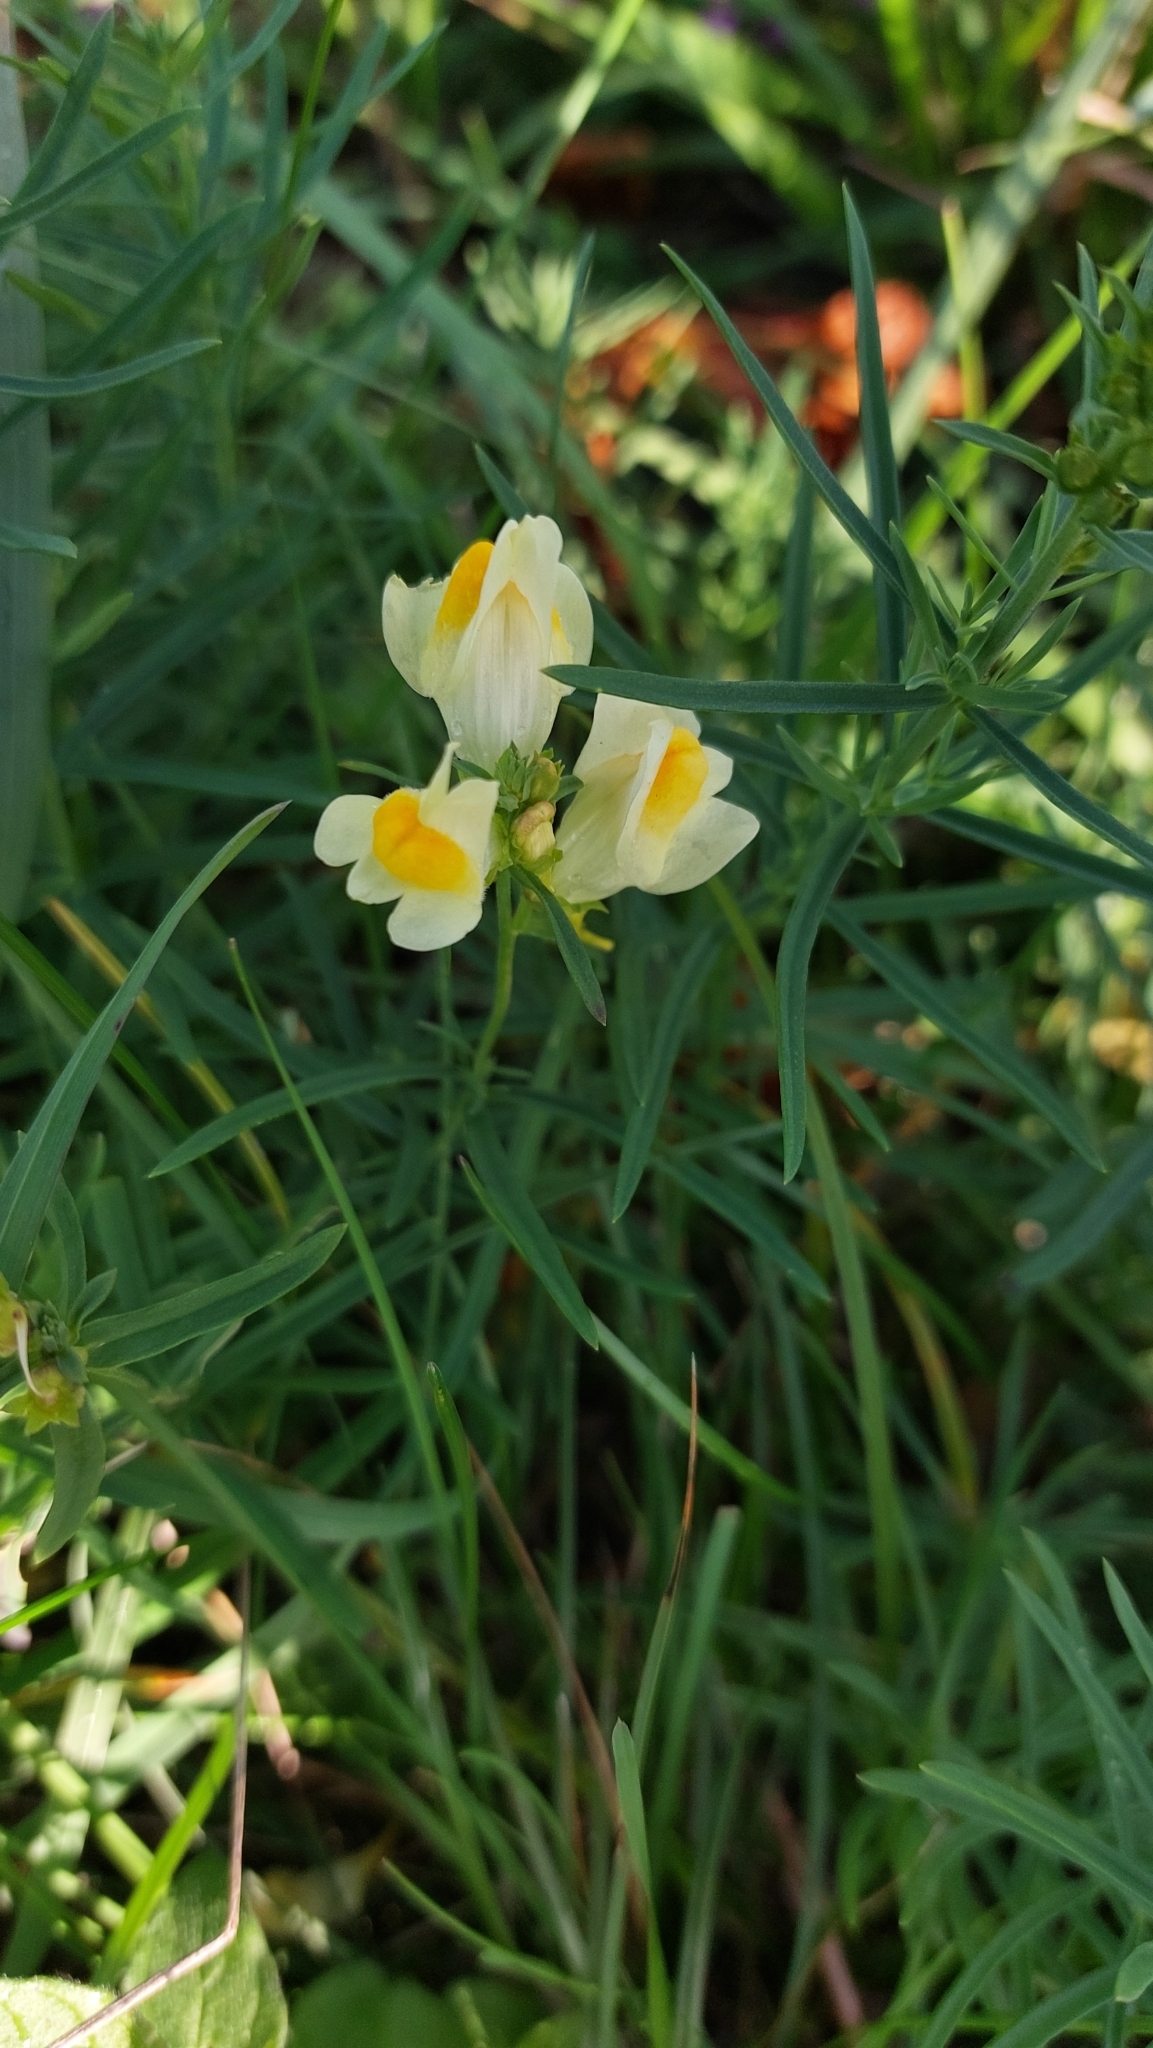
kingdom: Plantae
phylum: Tracheophyta
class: Magnoliopsida
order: Lamiales
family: Plantaginaceae
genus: Linaria
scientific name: Linaria vulgaris
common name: Butter and eggs
